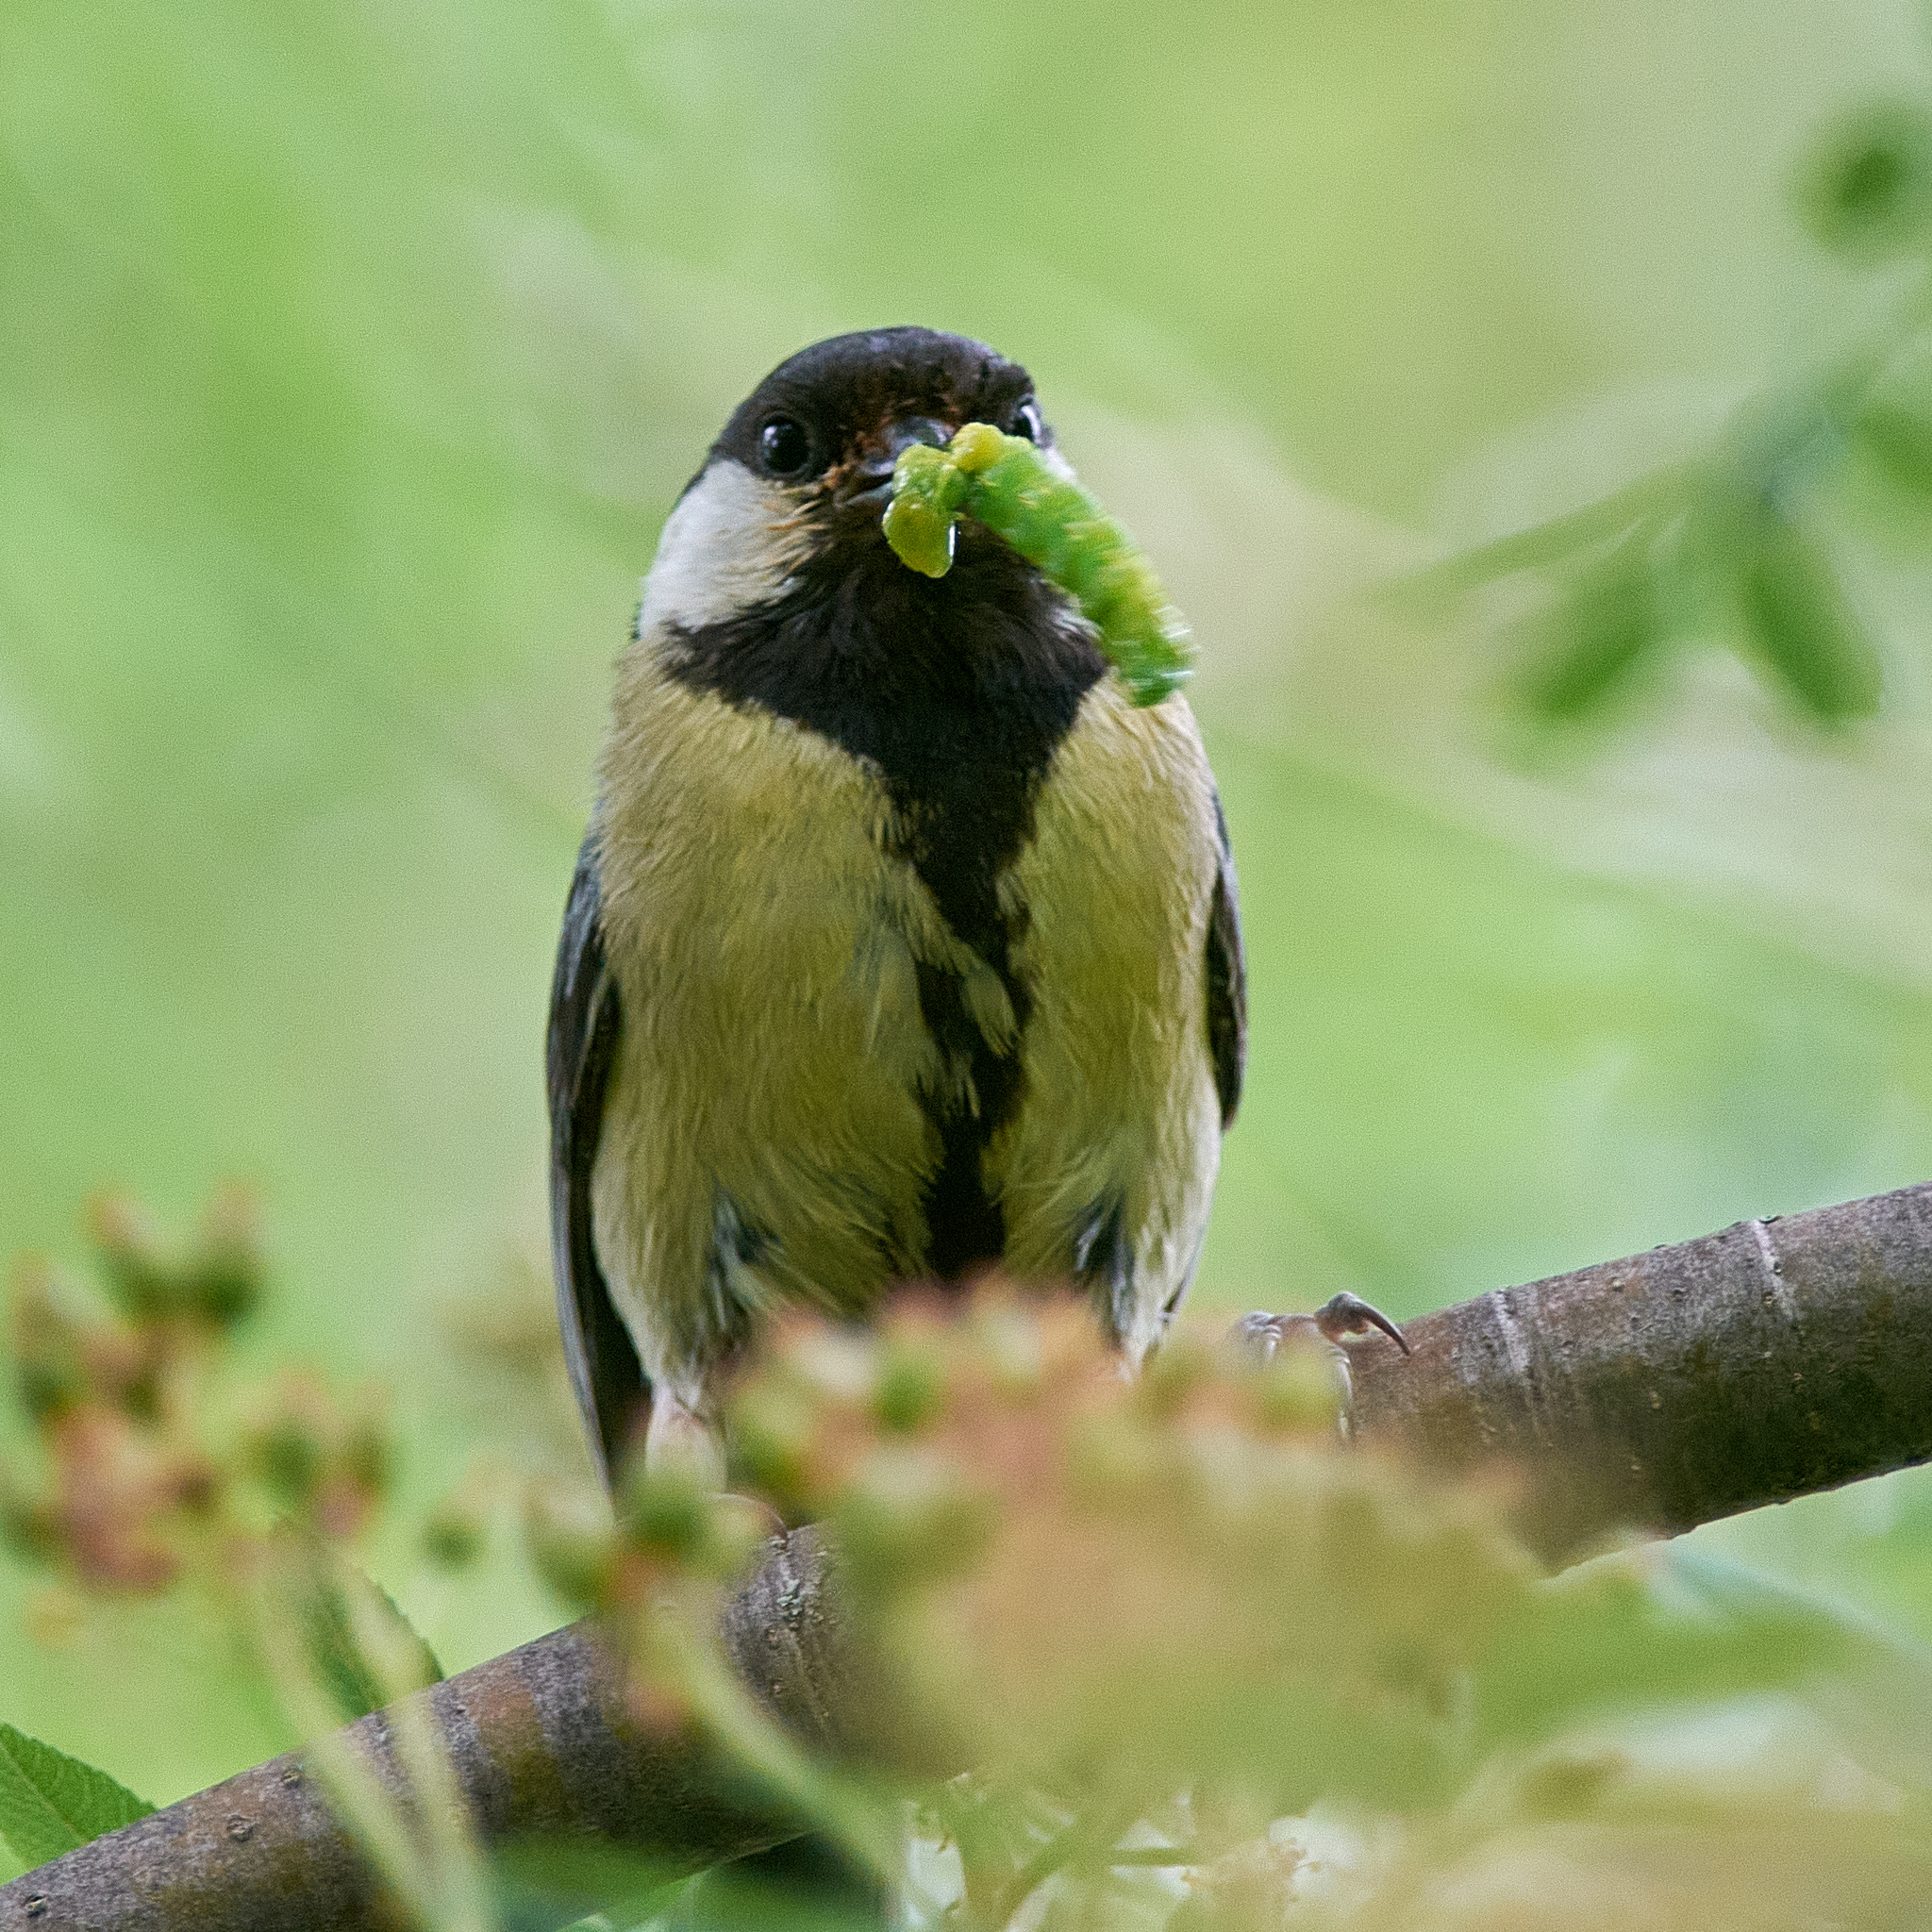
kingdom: Animalia
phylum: Chordata
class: Aves
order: Passeriformes
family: Paridae
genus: Parus
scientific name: Parus major
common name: Great tit
